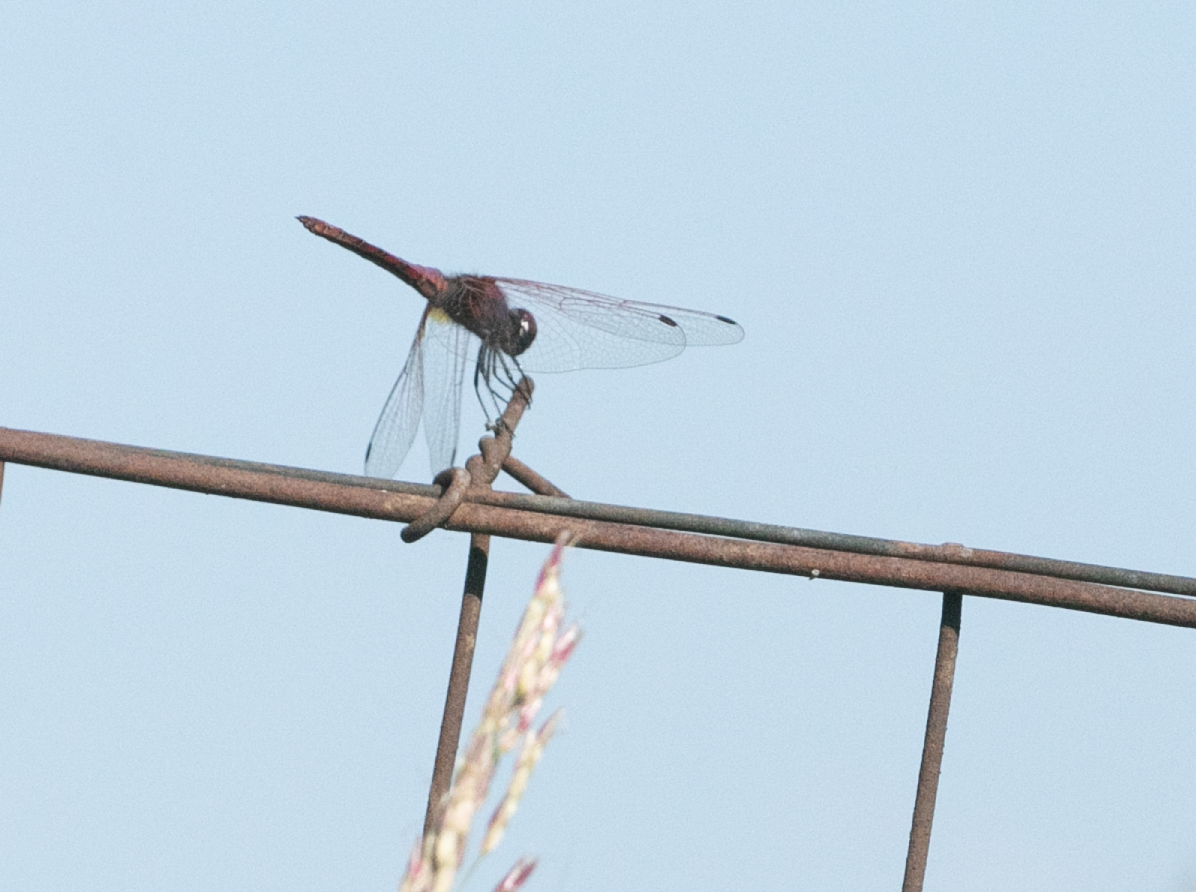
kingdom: Animalia
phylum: Arthropoda
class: Insecta
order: Odonata
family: Libellulidae
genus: Trithemis
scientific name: Trithemis annulata
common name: Violet dropwing
